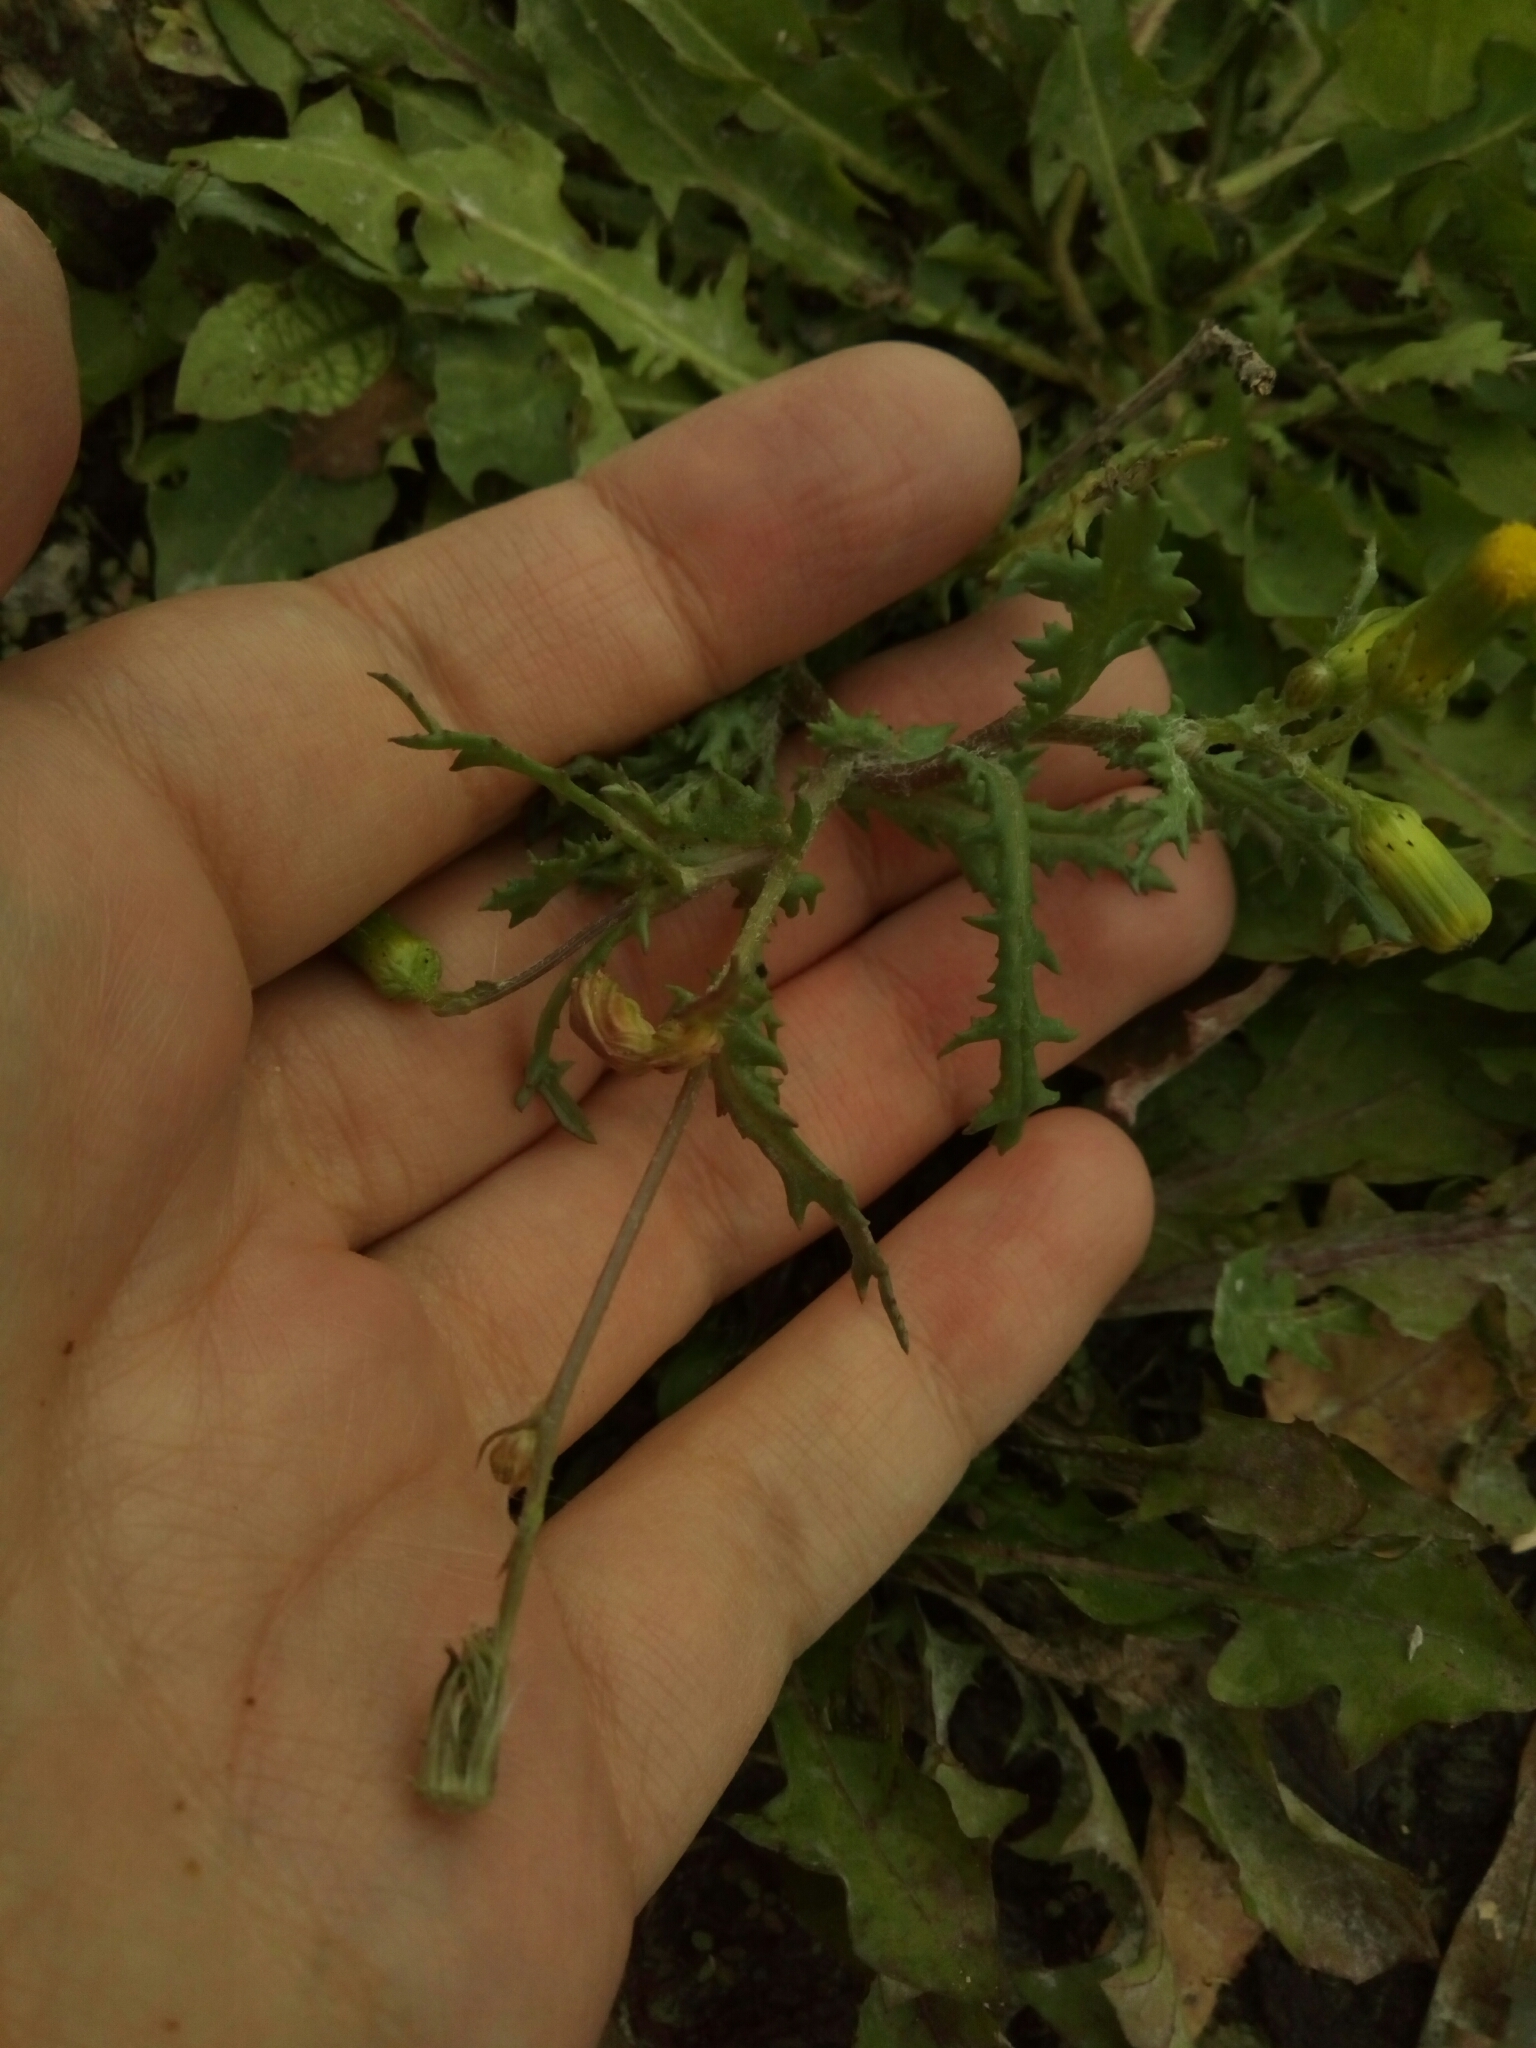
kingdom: Plantae
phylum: Tracheophyta
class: Magnoliopsida
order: Asterales
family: Asteraceae
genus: Senecio
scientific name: Senecio vulgaris
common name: Old-man-in-the-spring
